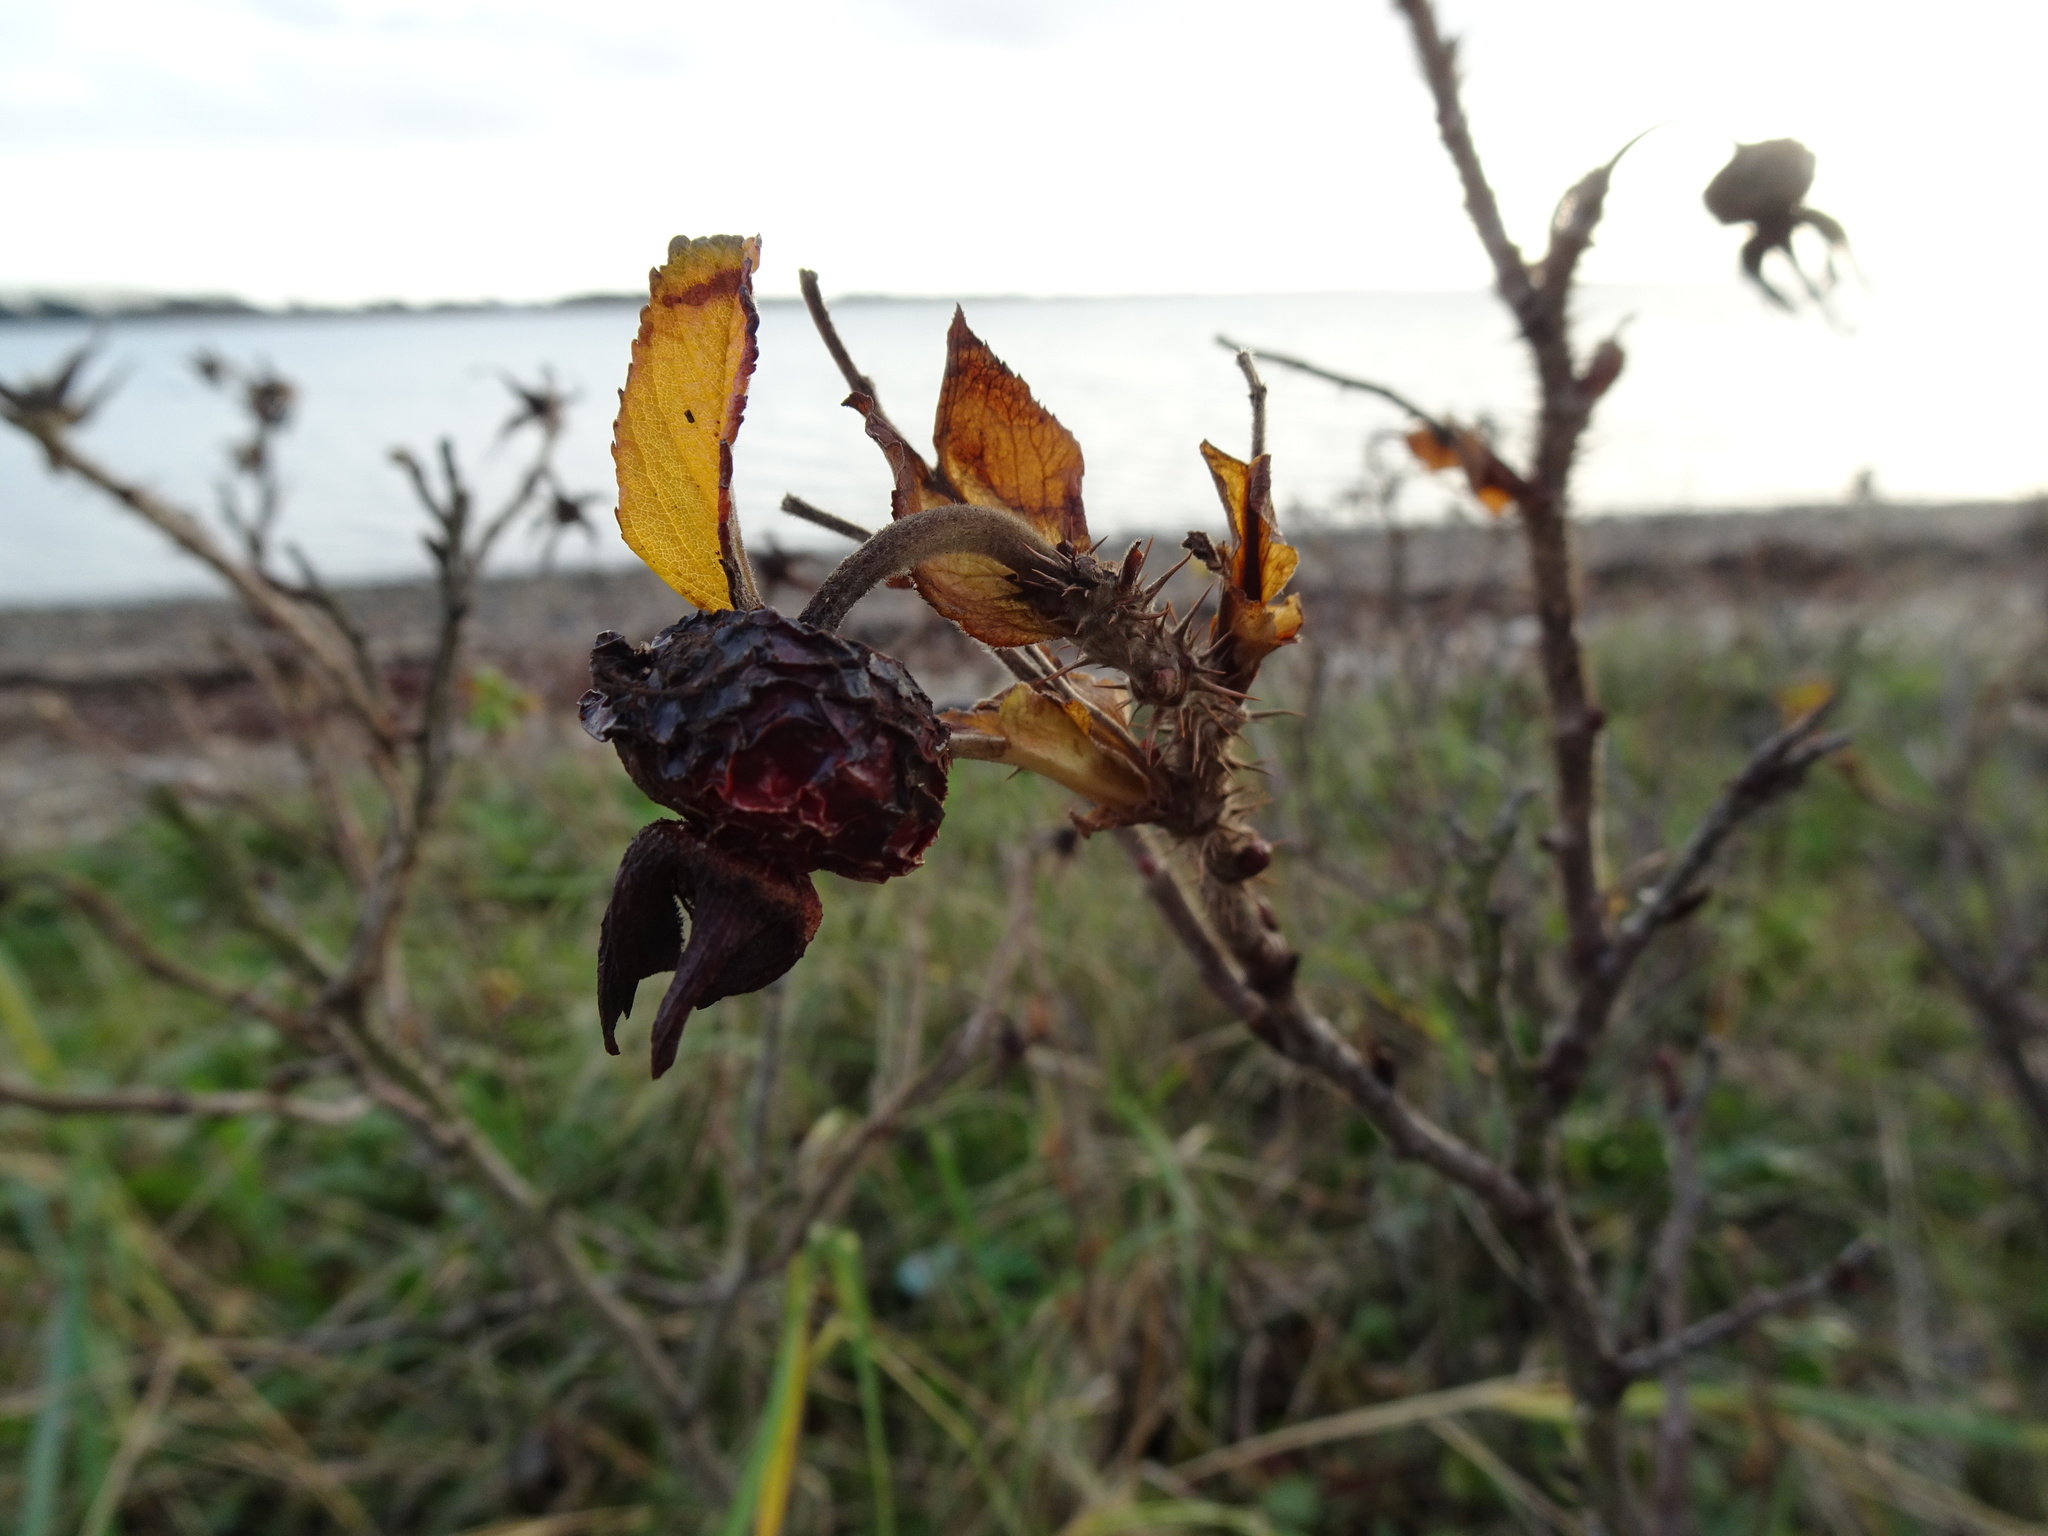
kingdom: Plantae
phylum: Tracheophyta
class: Magnoliopsida
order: Rosales
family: Rosaceae
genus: Rosa
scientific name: Rosa rugosa
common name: Japanese rose
